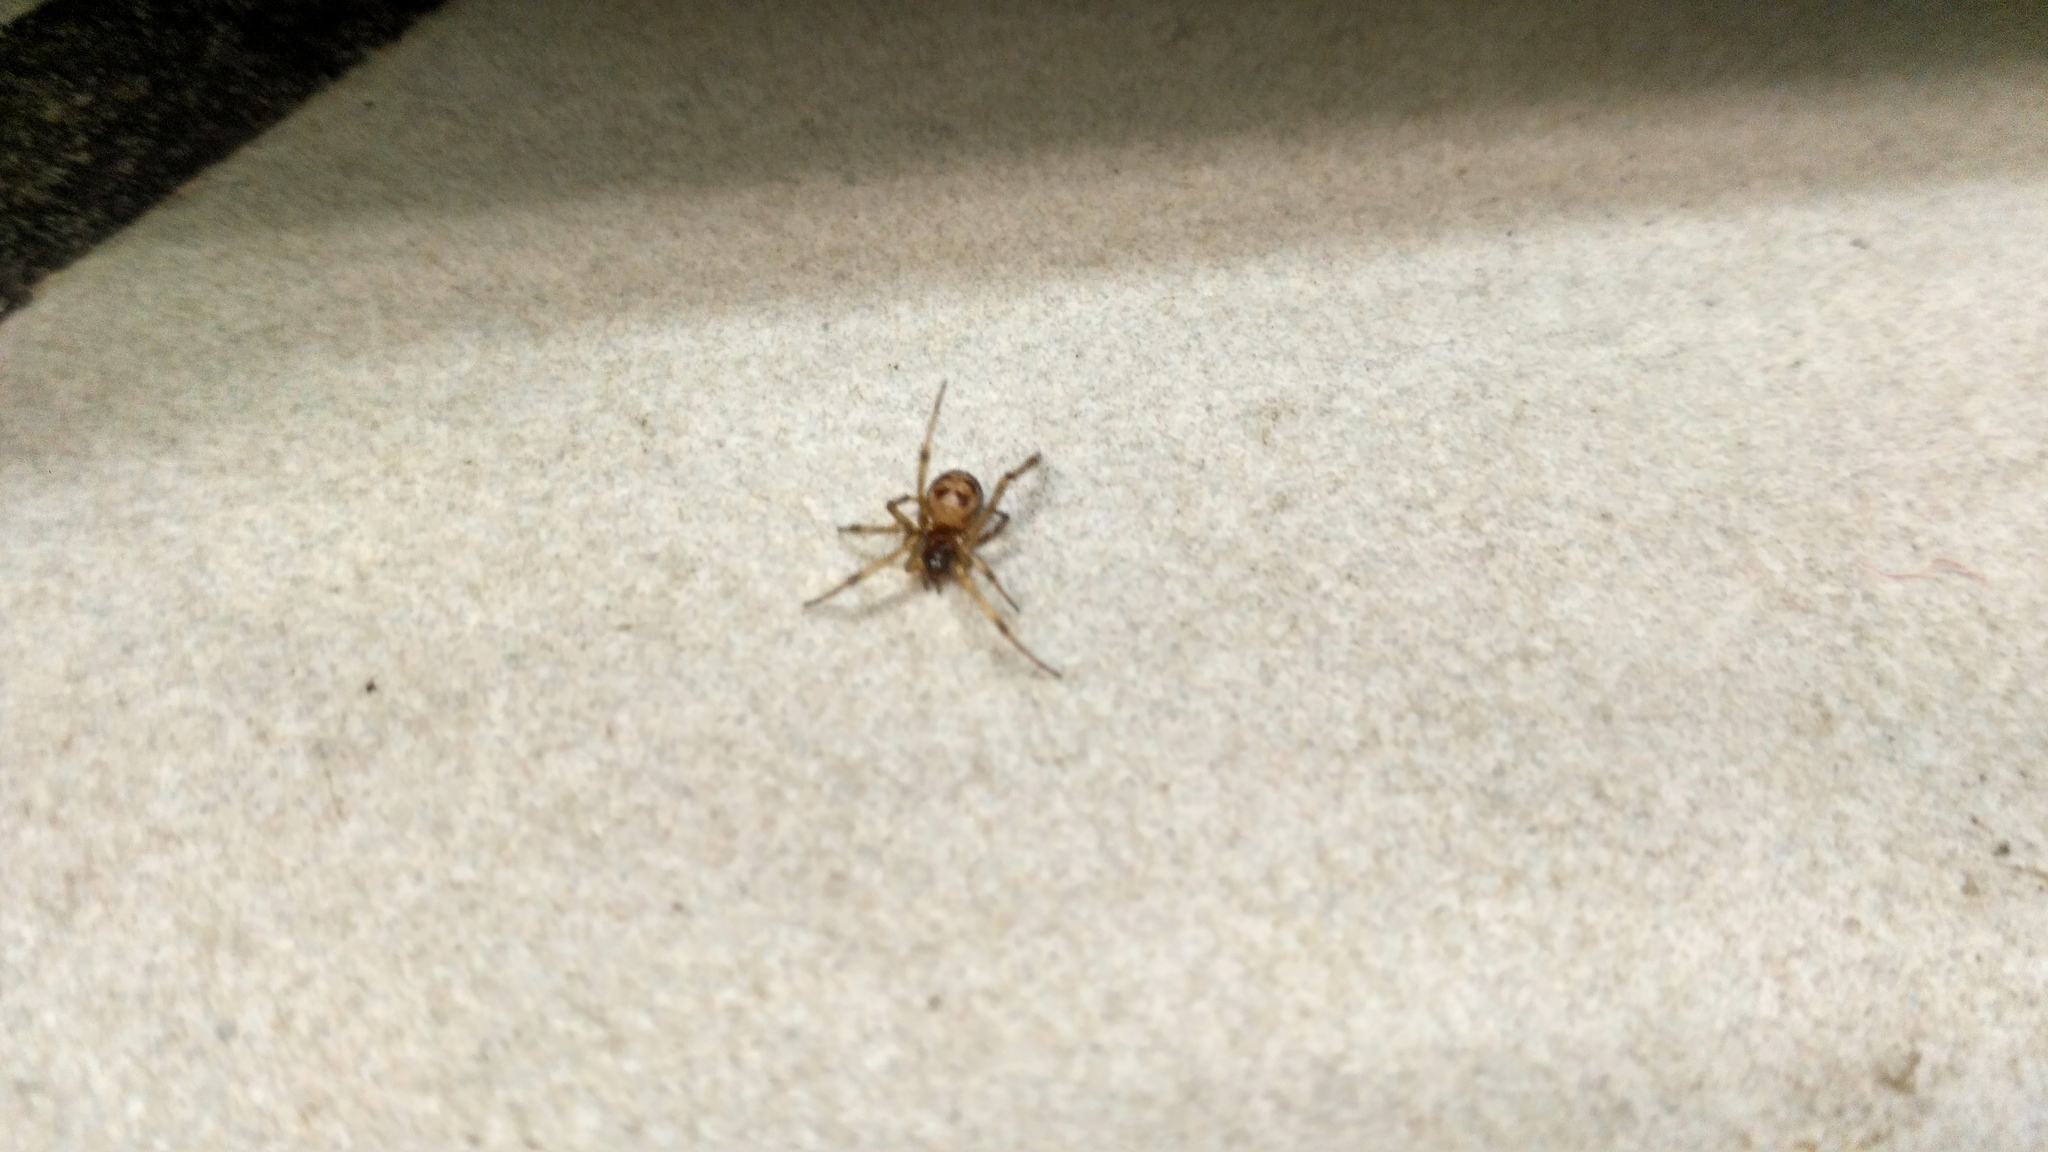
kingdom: Animalia
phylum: Arthropoda
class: Arachnida
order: Araneae
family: Theridiidae
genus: Steatoda
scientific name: Steatoda triangulosa
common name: Triangulate bud spider
